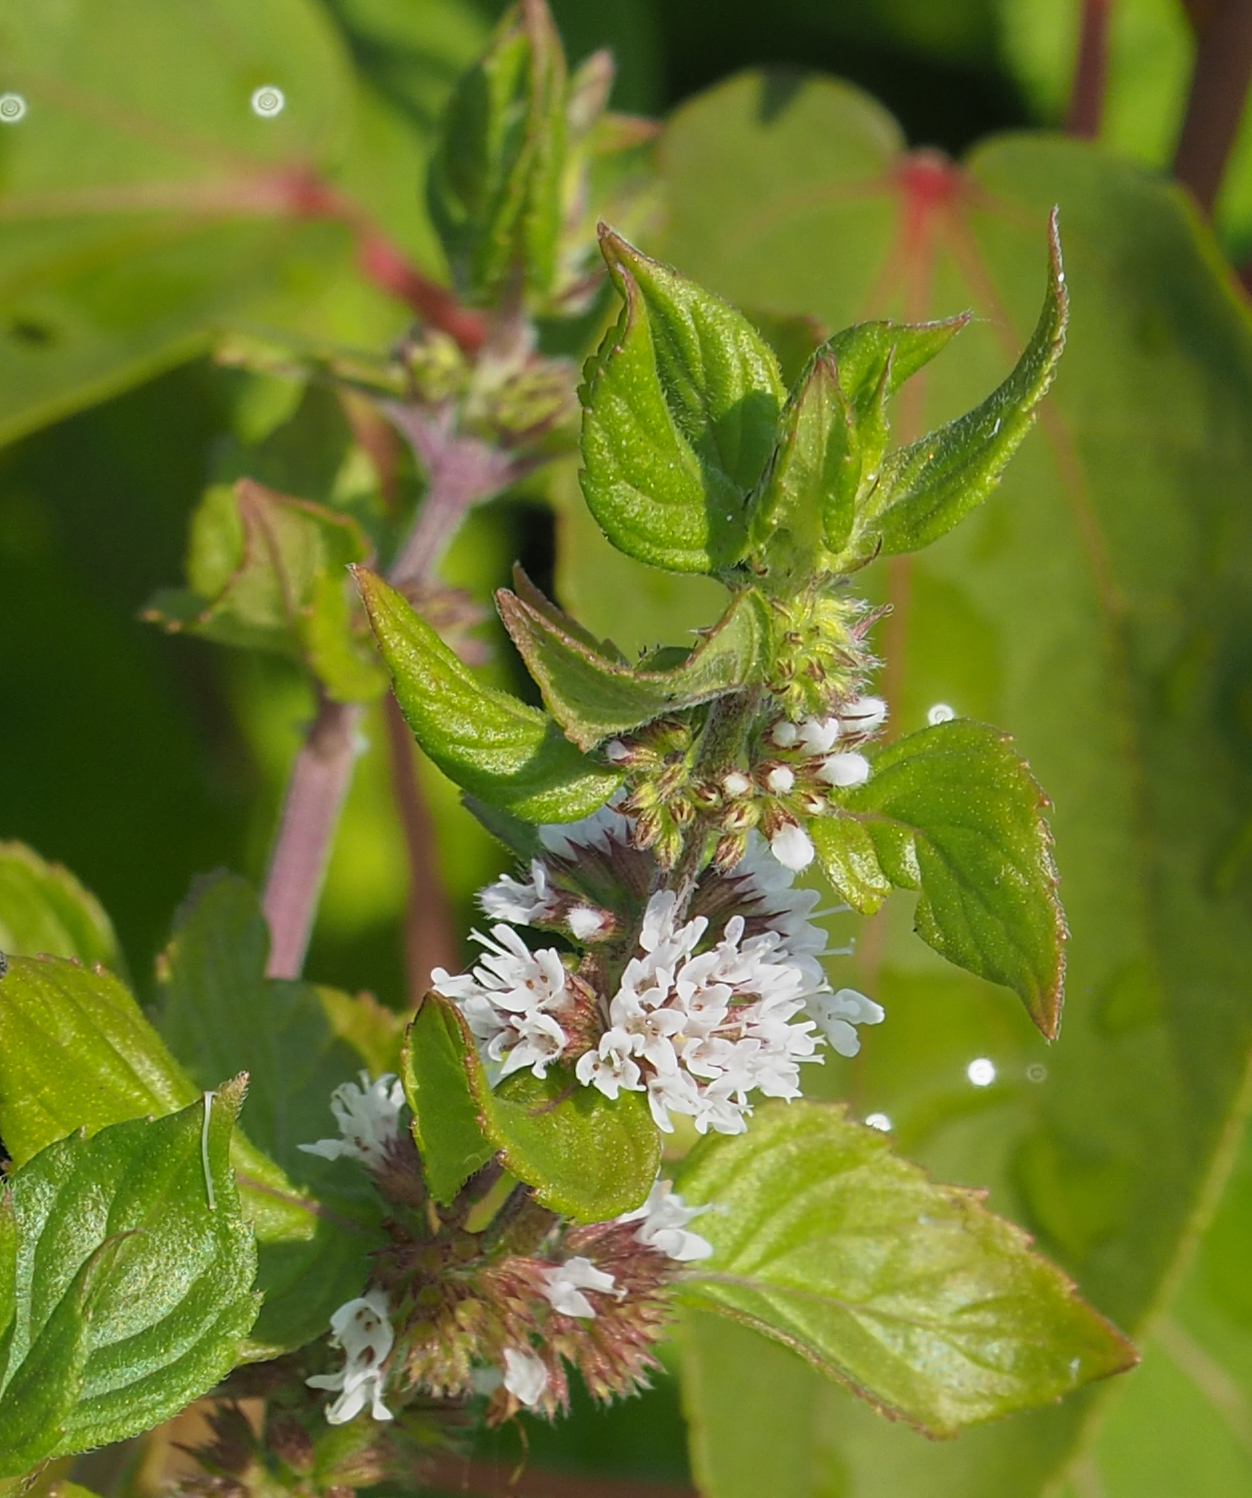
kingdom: Plantae
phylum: Tracheophyta
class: Magnoliopsida
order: Lamiales
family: Lamiaceae
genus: Mentha
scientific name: Mentha arvensis
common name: Corn mint
